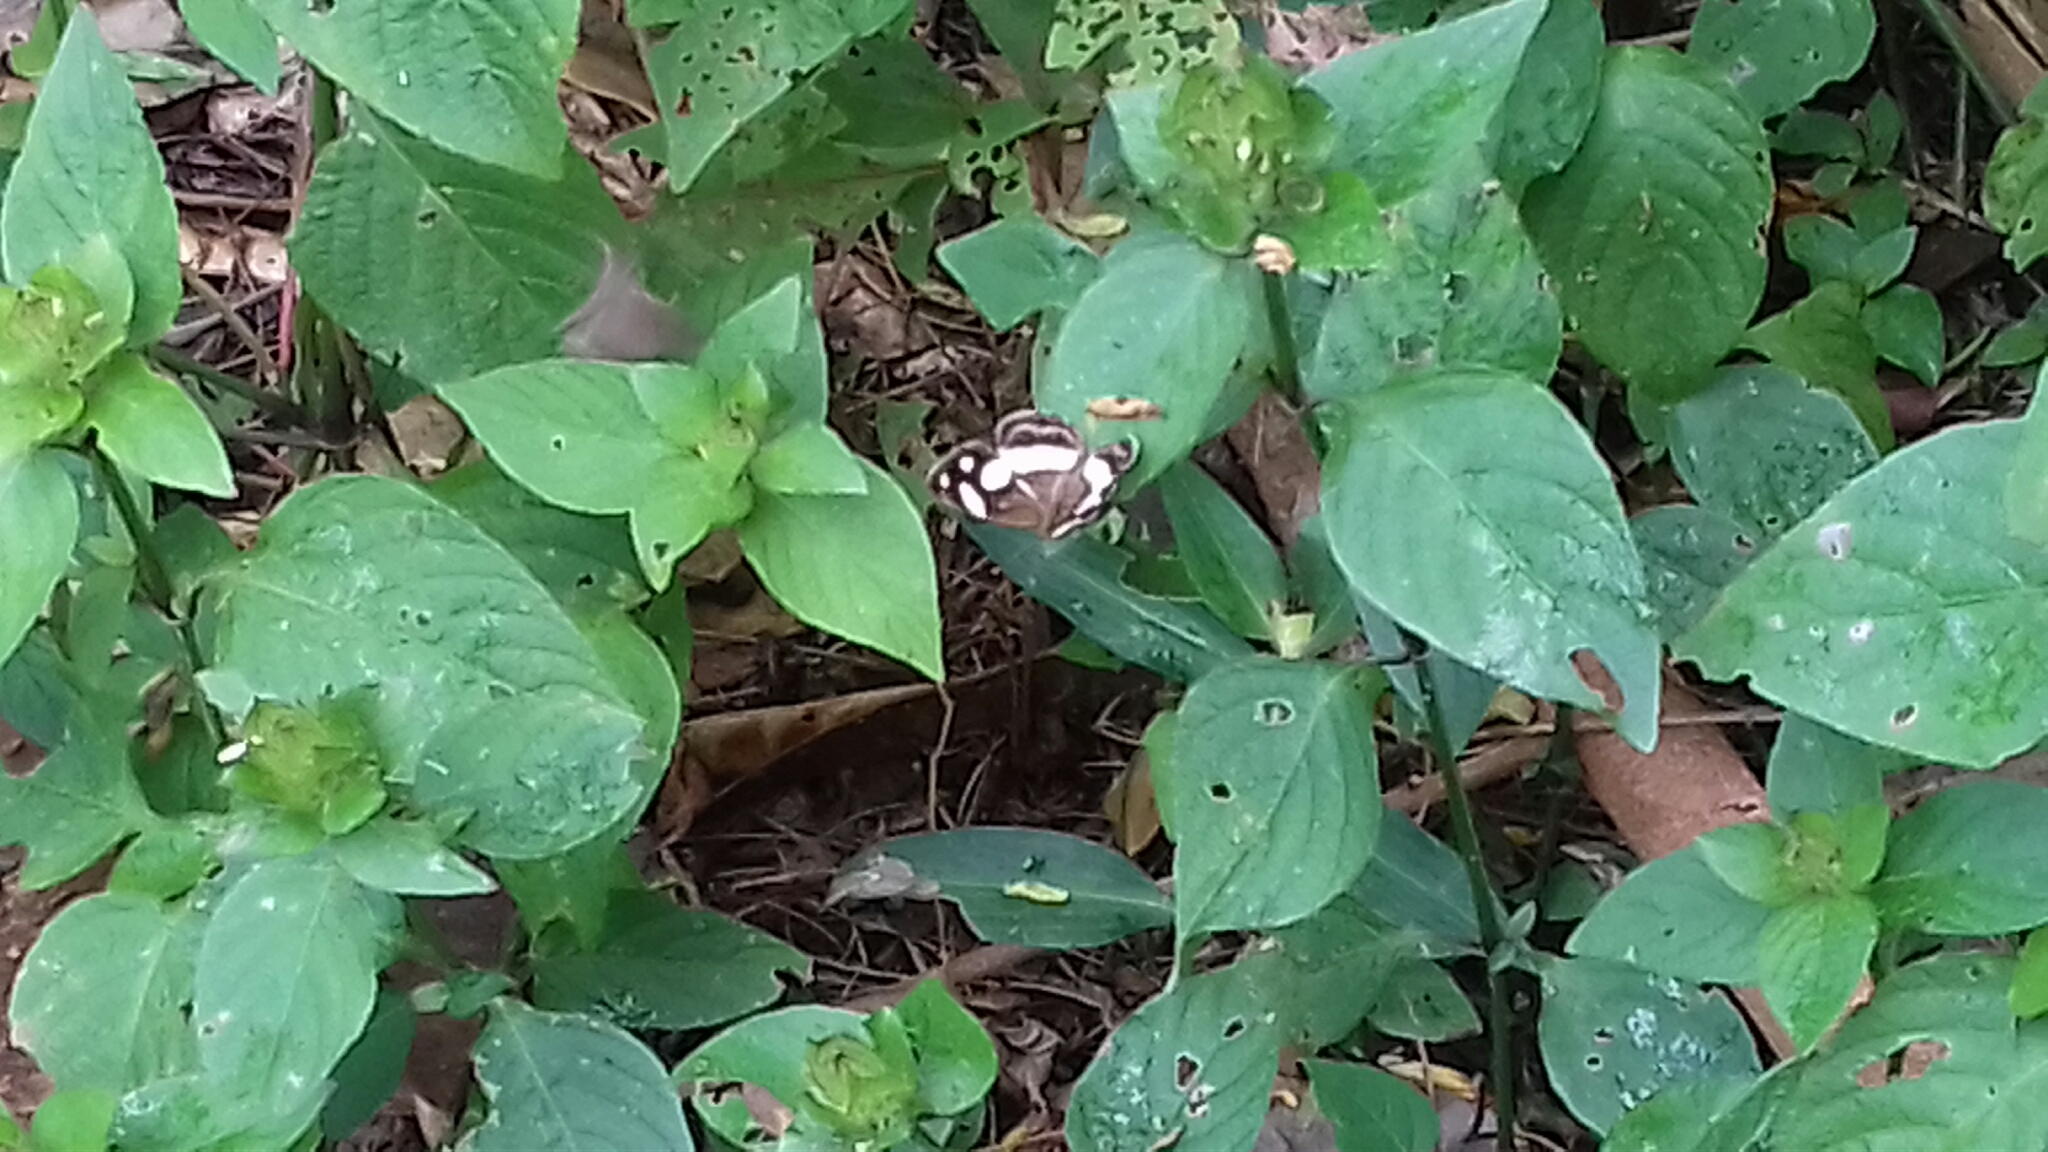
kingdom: Animalia
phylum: Arthropoda
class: Insecta
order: Lepidoptera
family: Nymphalidae
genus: Dynamine
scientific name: Dynamine
